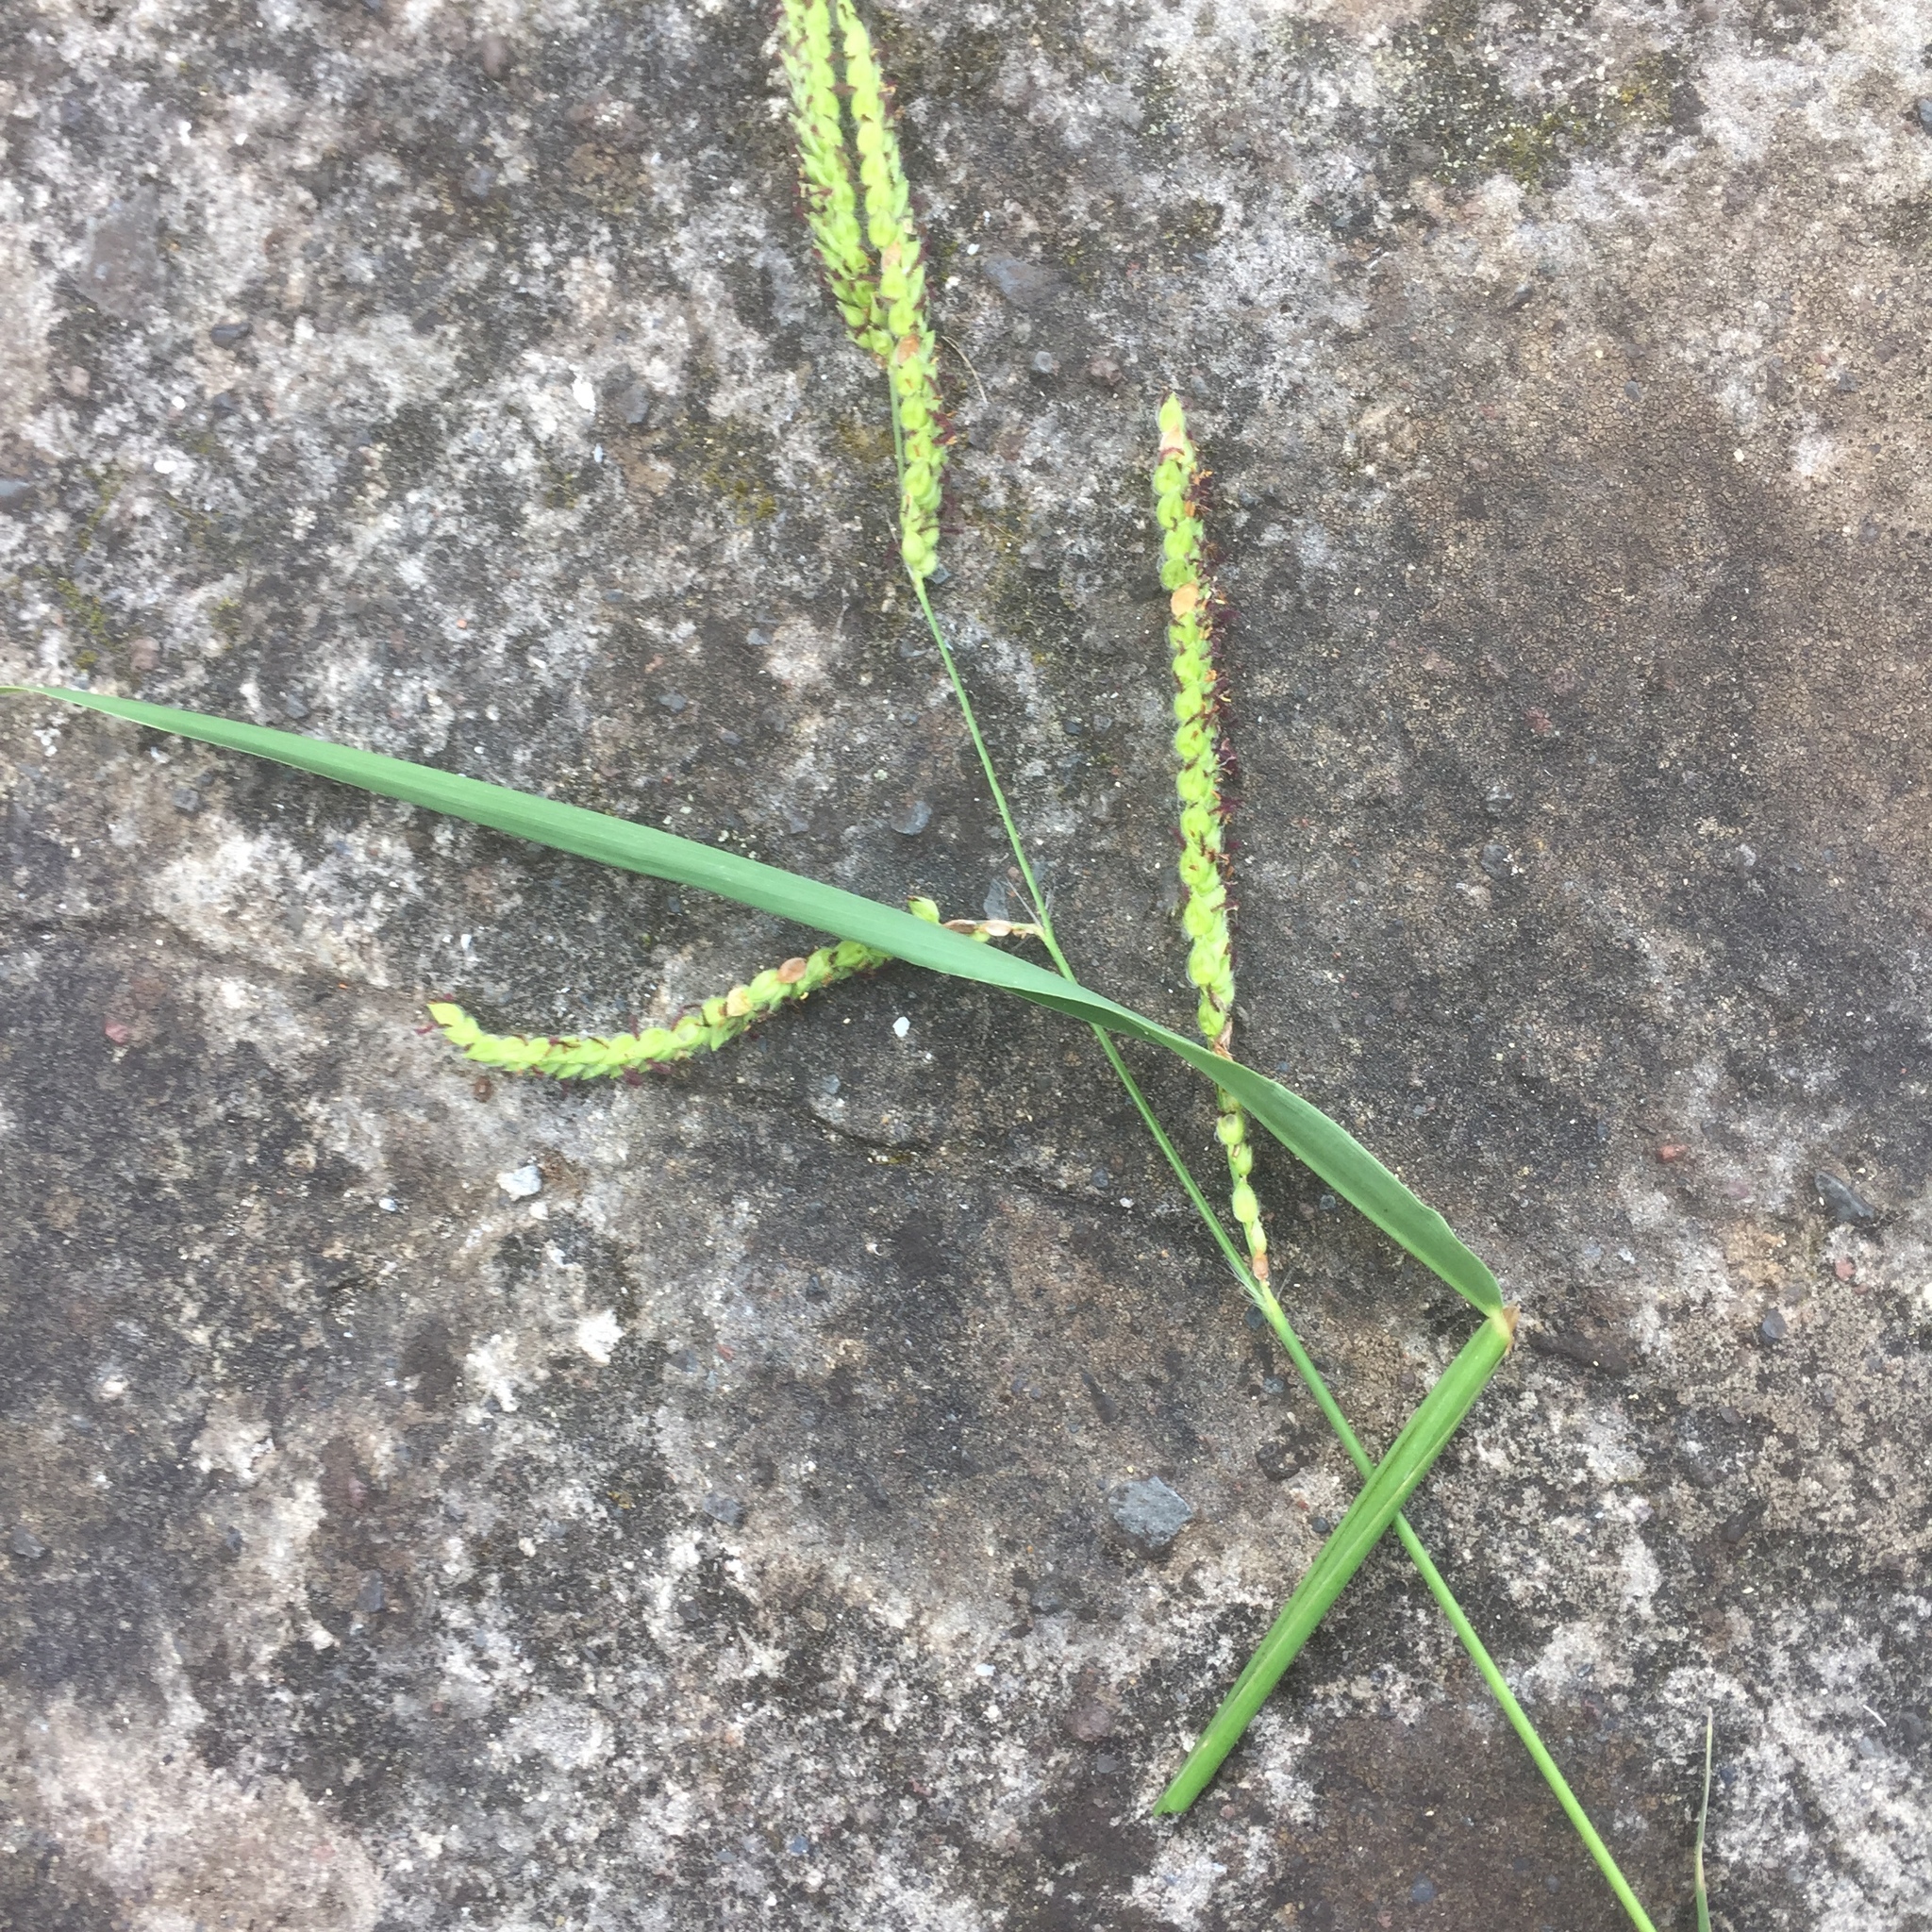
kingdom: Plantae
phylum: Tracheophyta
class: Liliopsida
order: Poales
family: Poaceae
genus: Paspalum
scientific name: Paspalum dilatatum
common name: Dallisgrass
